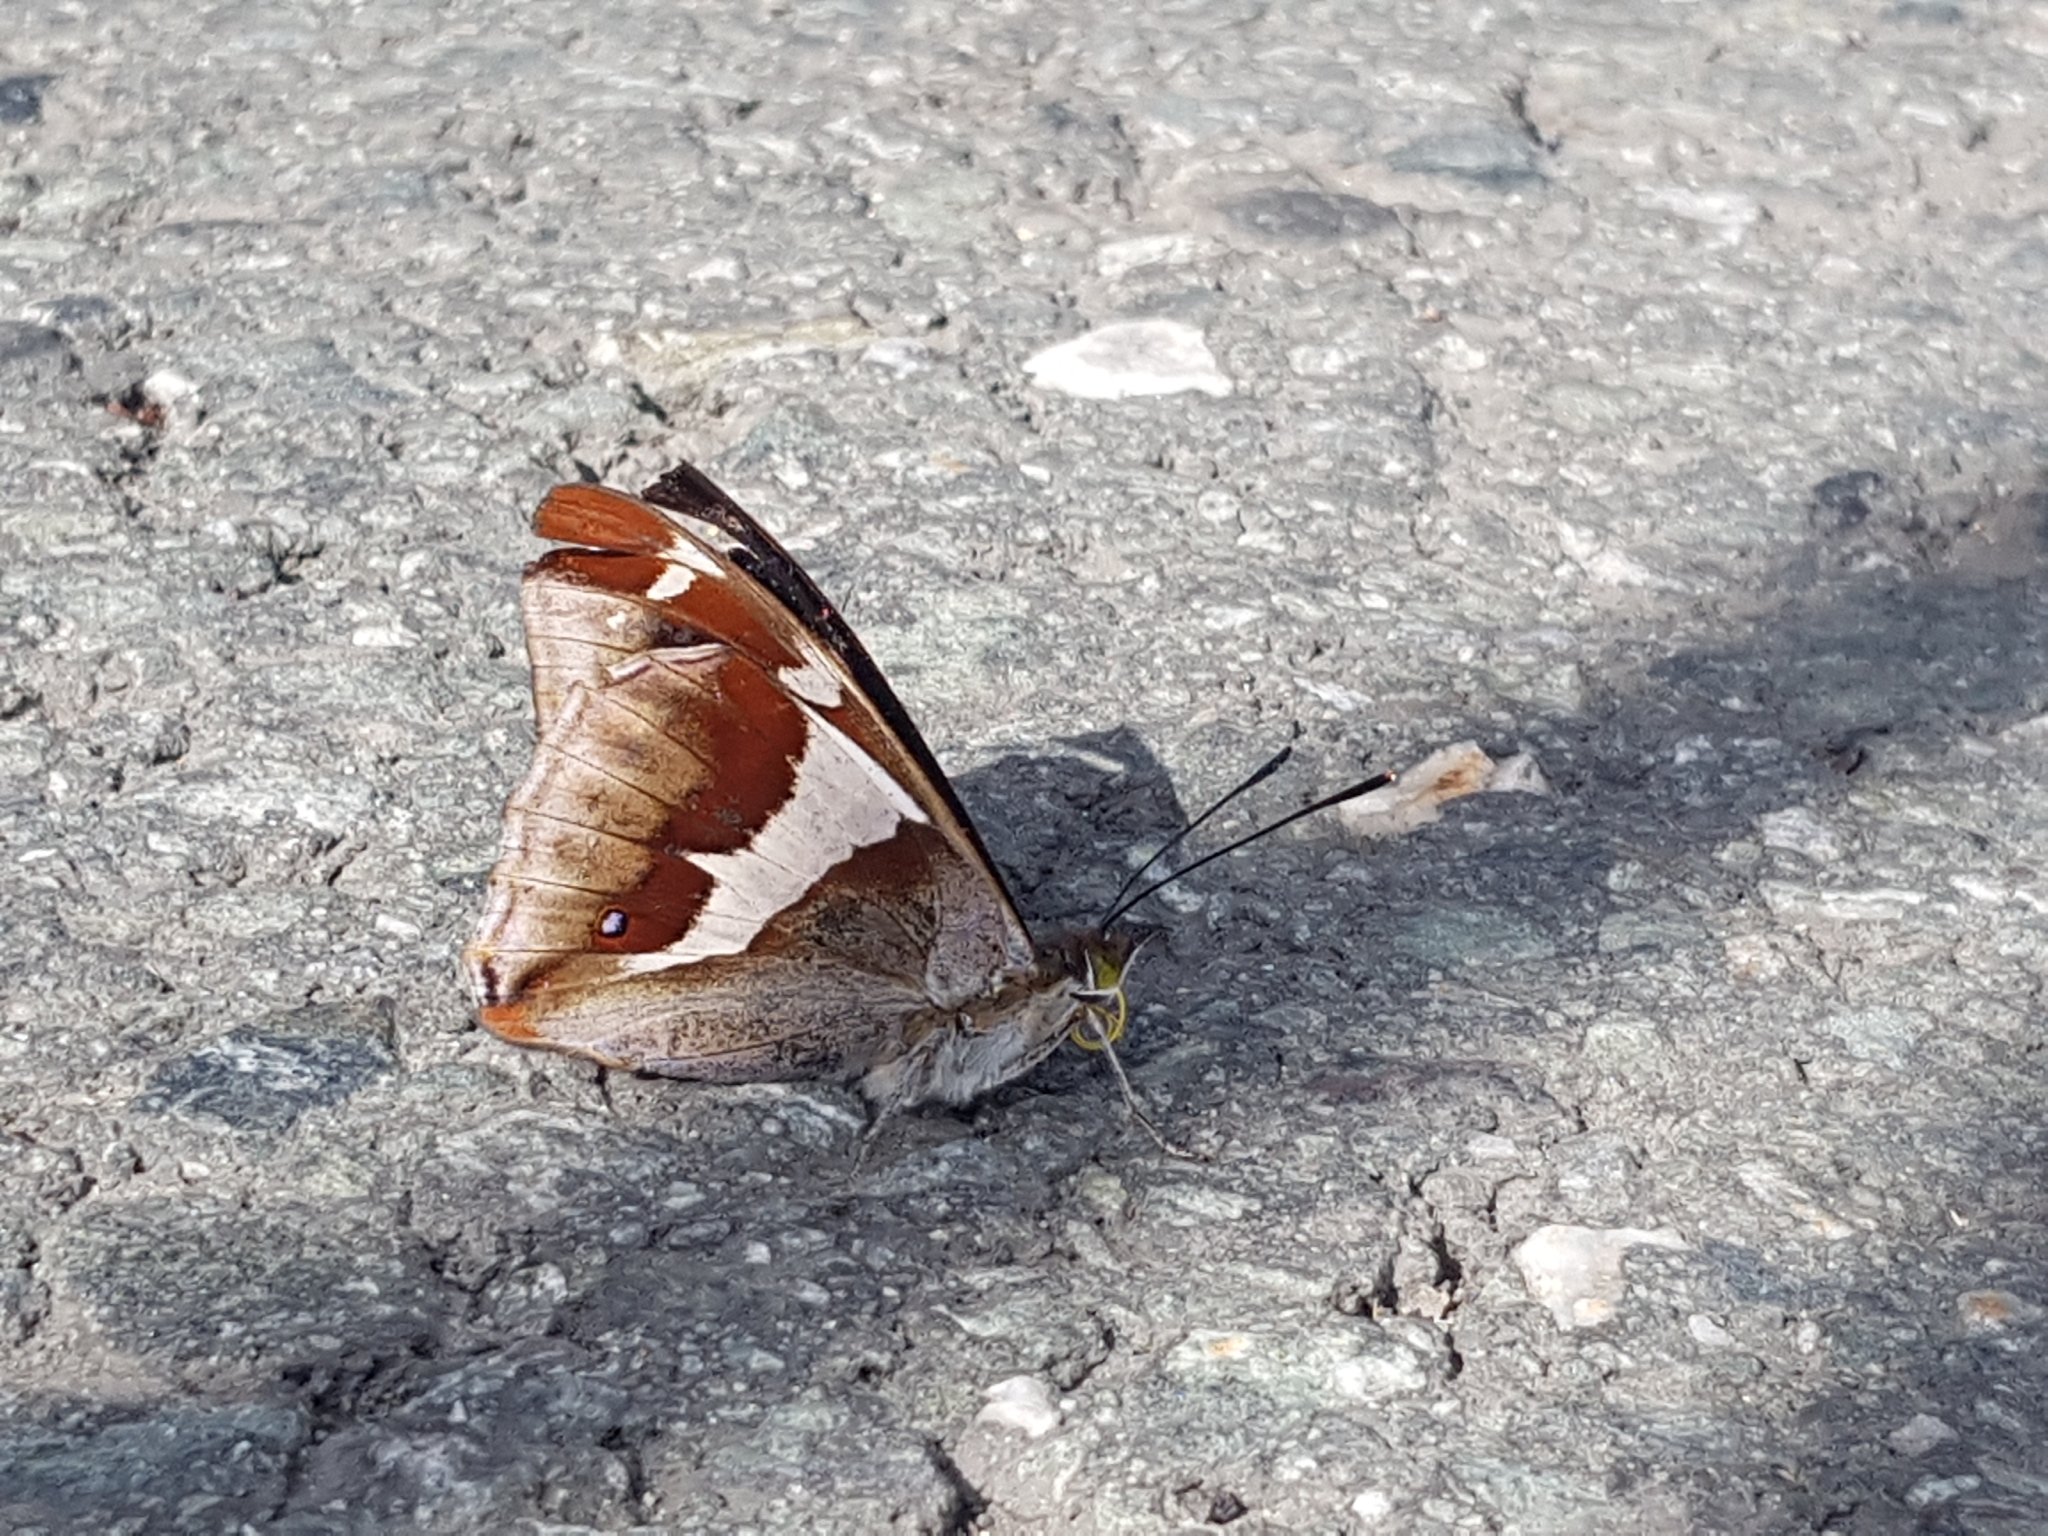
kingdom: Animalia
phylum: Arthropoda
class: Insecta
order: Lepidoptera
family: Nymphalidae
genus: Apatura
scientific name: Apatura iris
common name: Purple emperor
